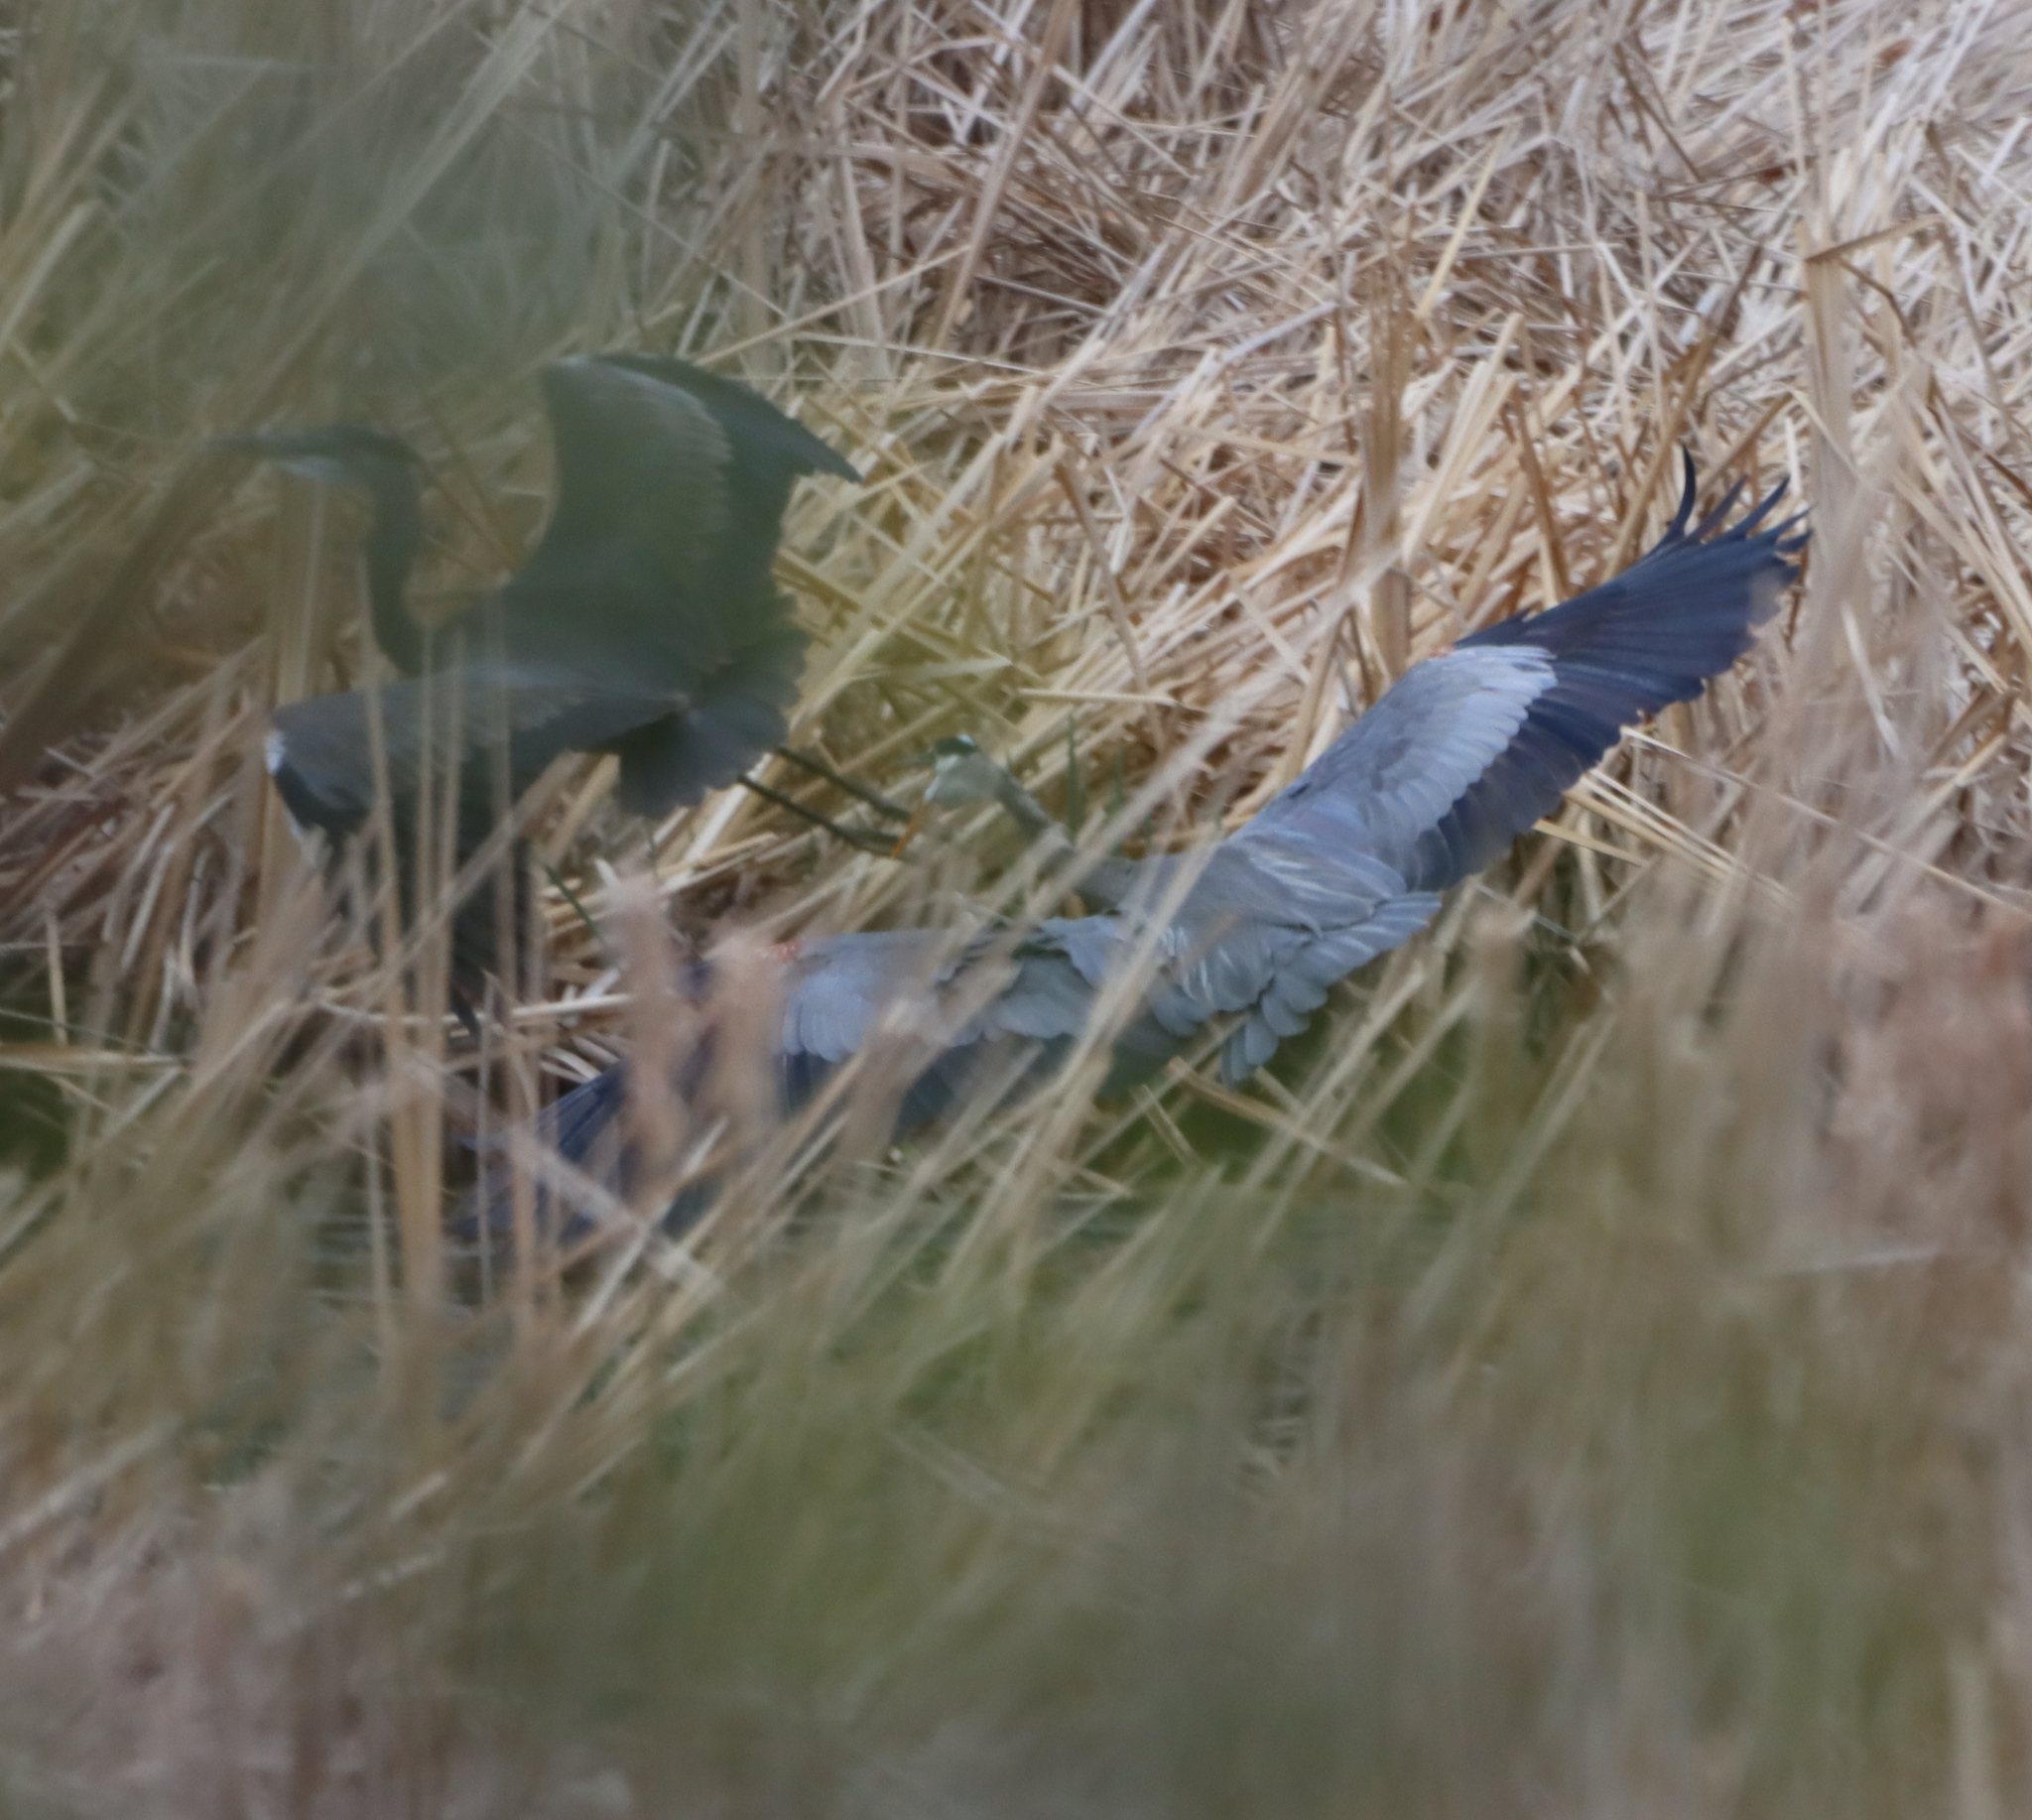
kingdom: Animalia
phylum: Chordata
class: Aves
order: Pelecaniformes
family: Ardeidae
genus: Ardea
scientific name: Ardea herodias
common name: Great blue heron
